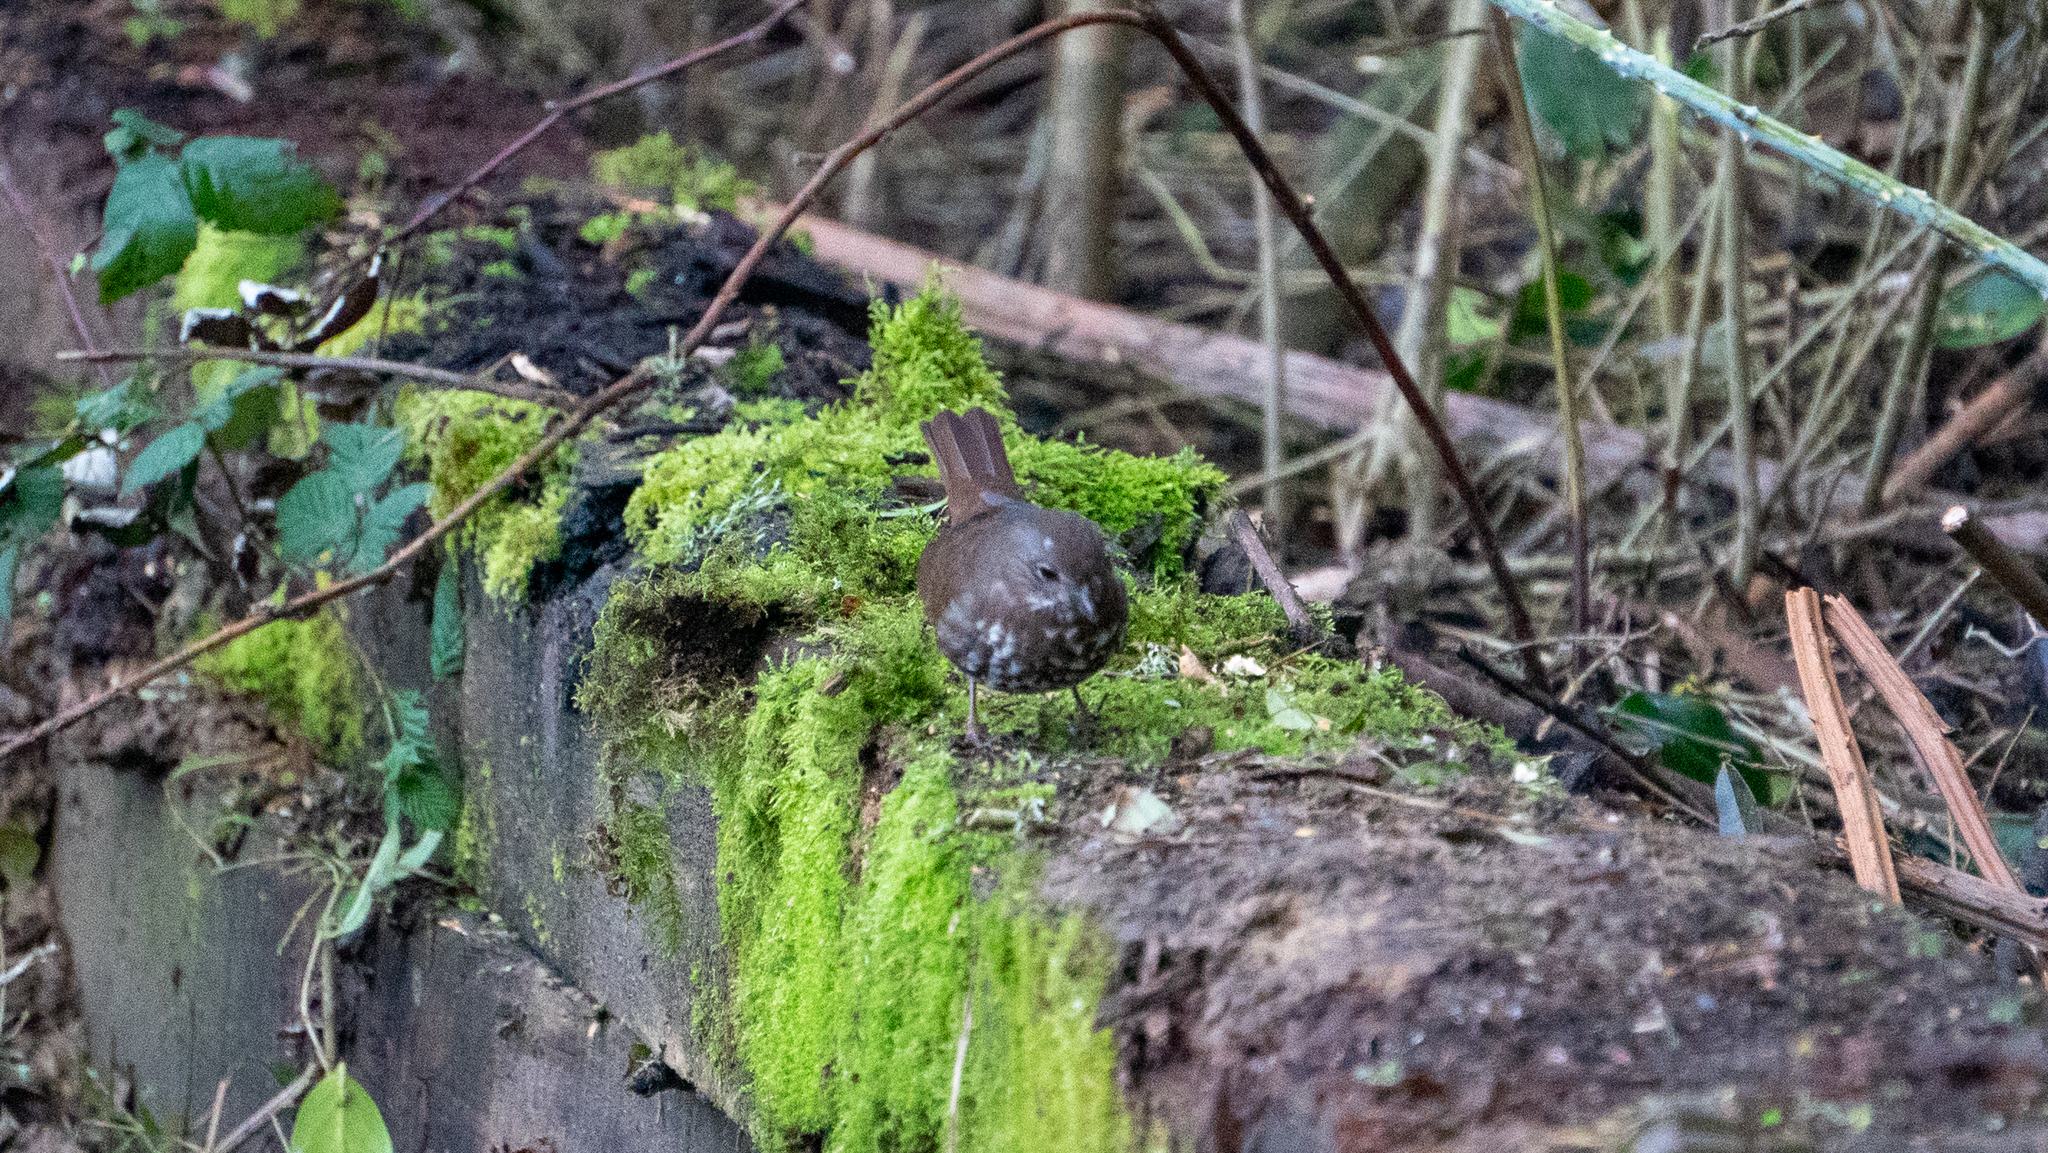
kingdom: Animalia
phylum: Chordata
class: Aves
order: Passeriformes
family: Passerellidae
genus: Passerella
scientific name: Passerella iliaca
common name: Fox sparrow
